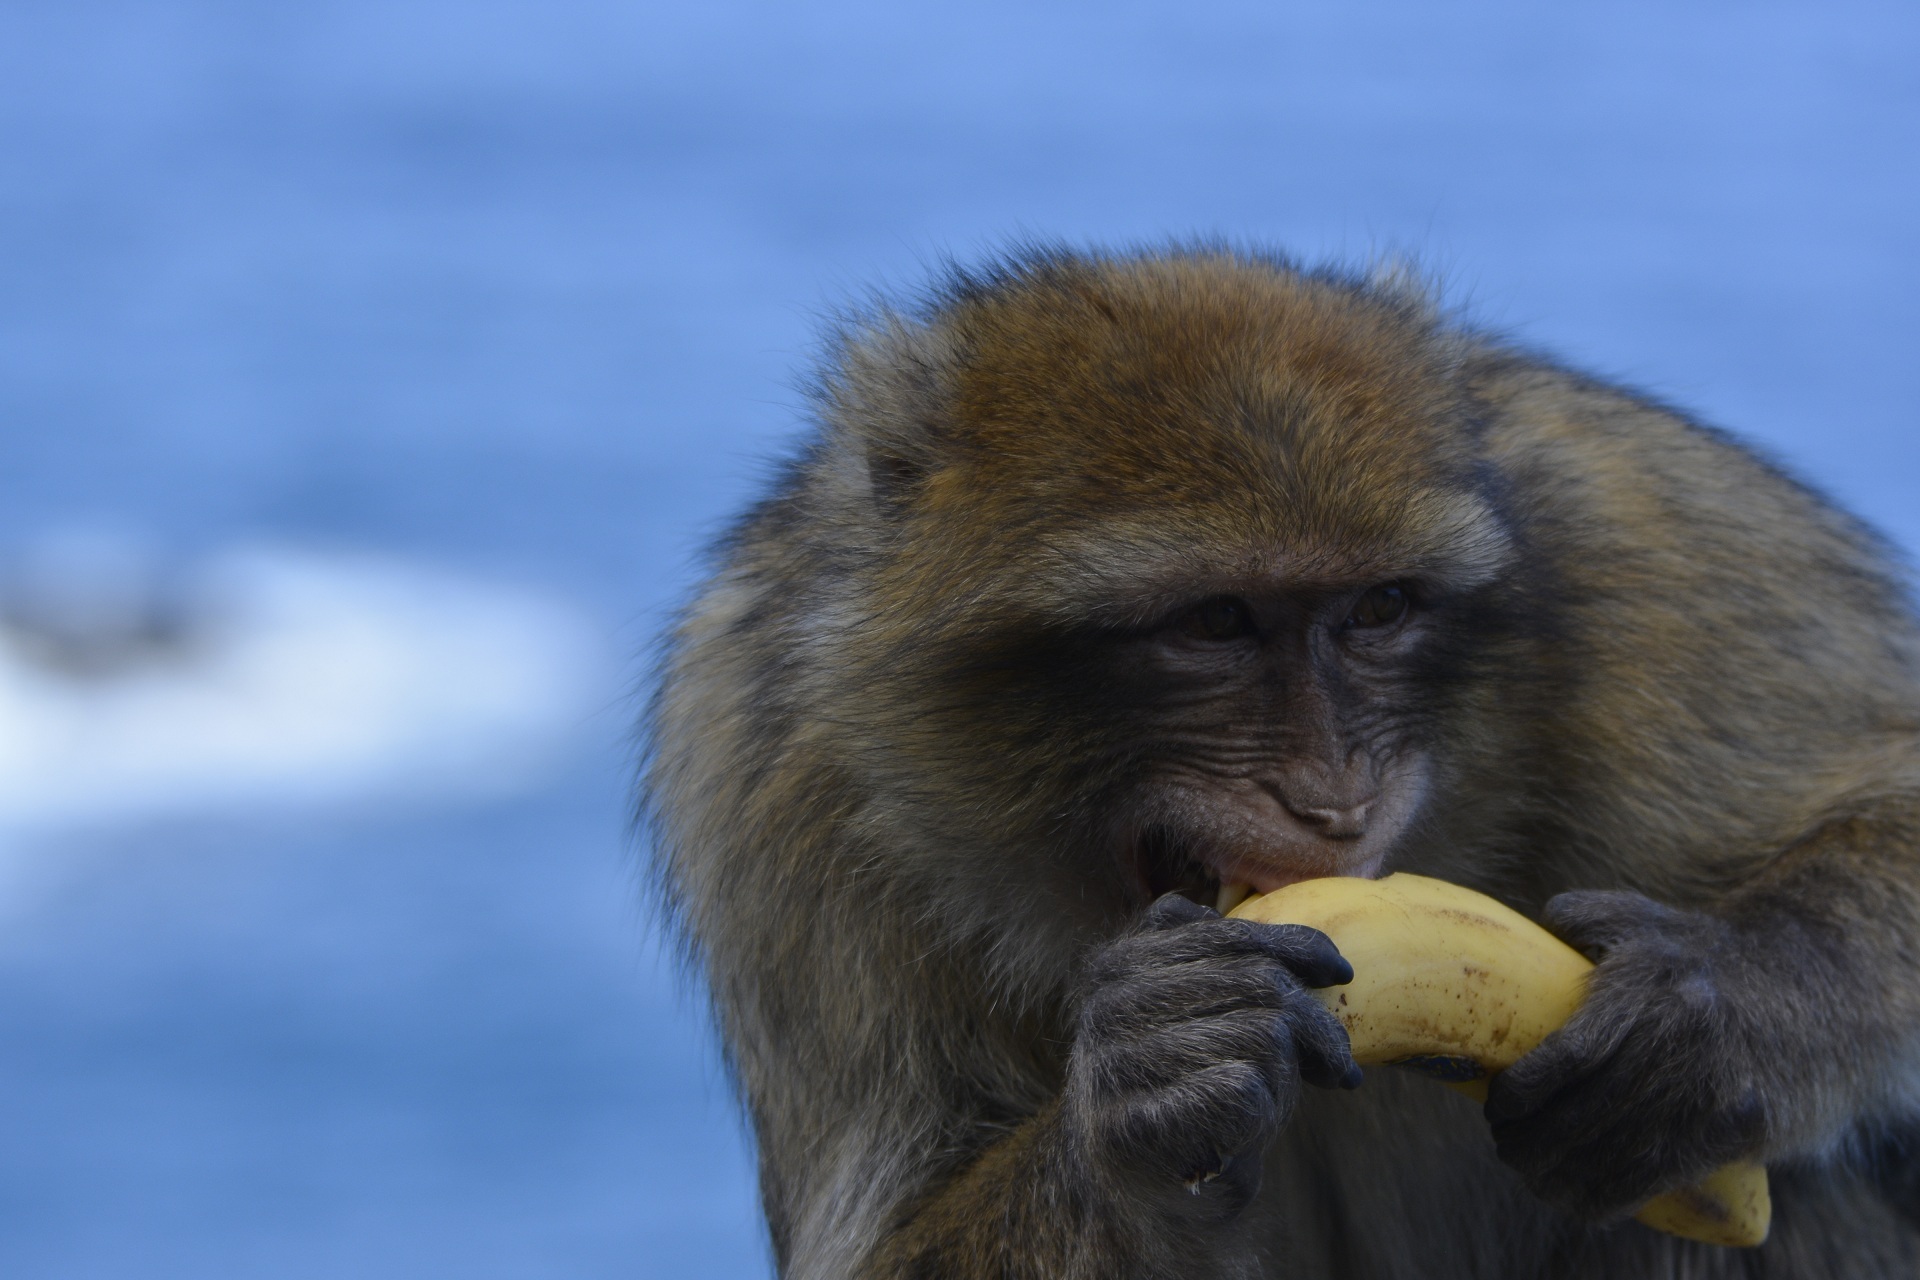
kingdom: Animalia
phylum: Chordata
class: Mammalia
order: Primates
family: Cercopithecidae
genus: Macaca
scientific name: Macaca sylvanus
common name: Barbary macaque
